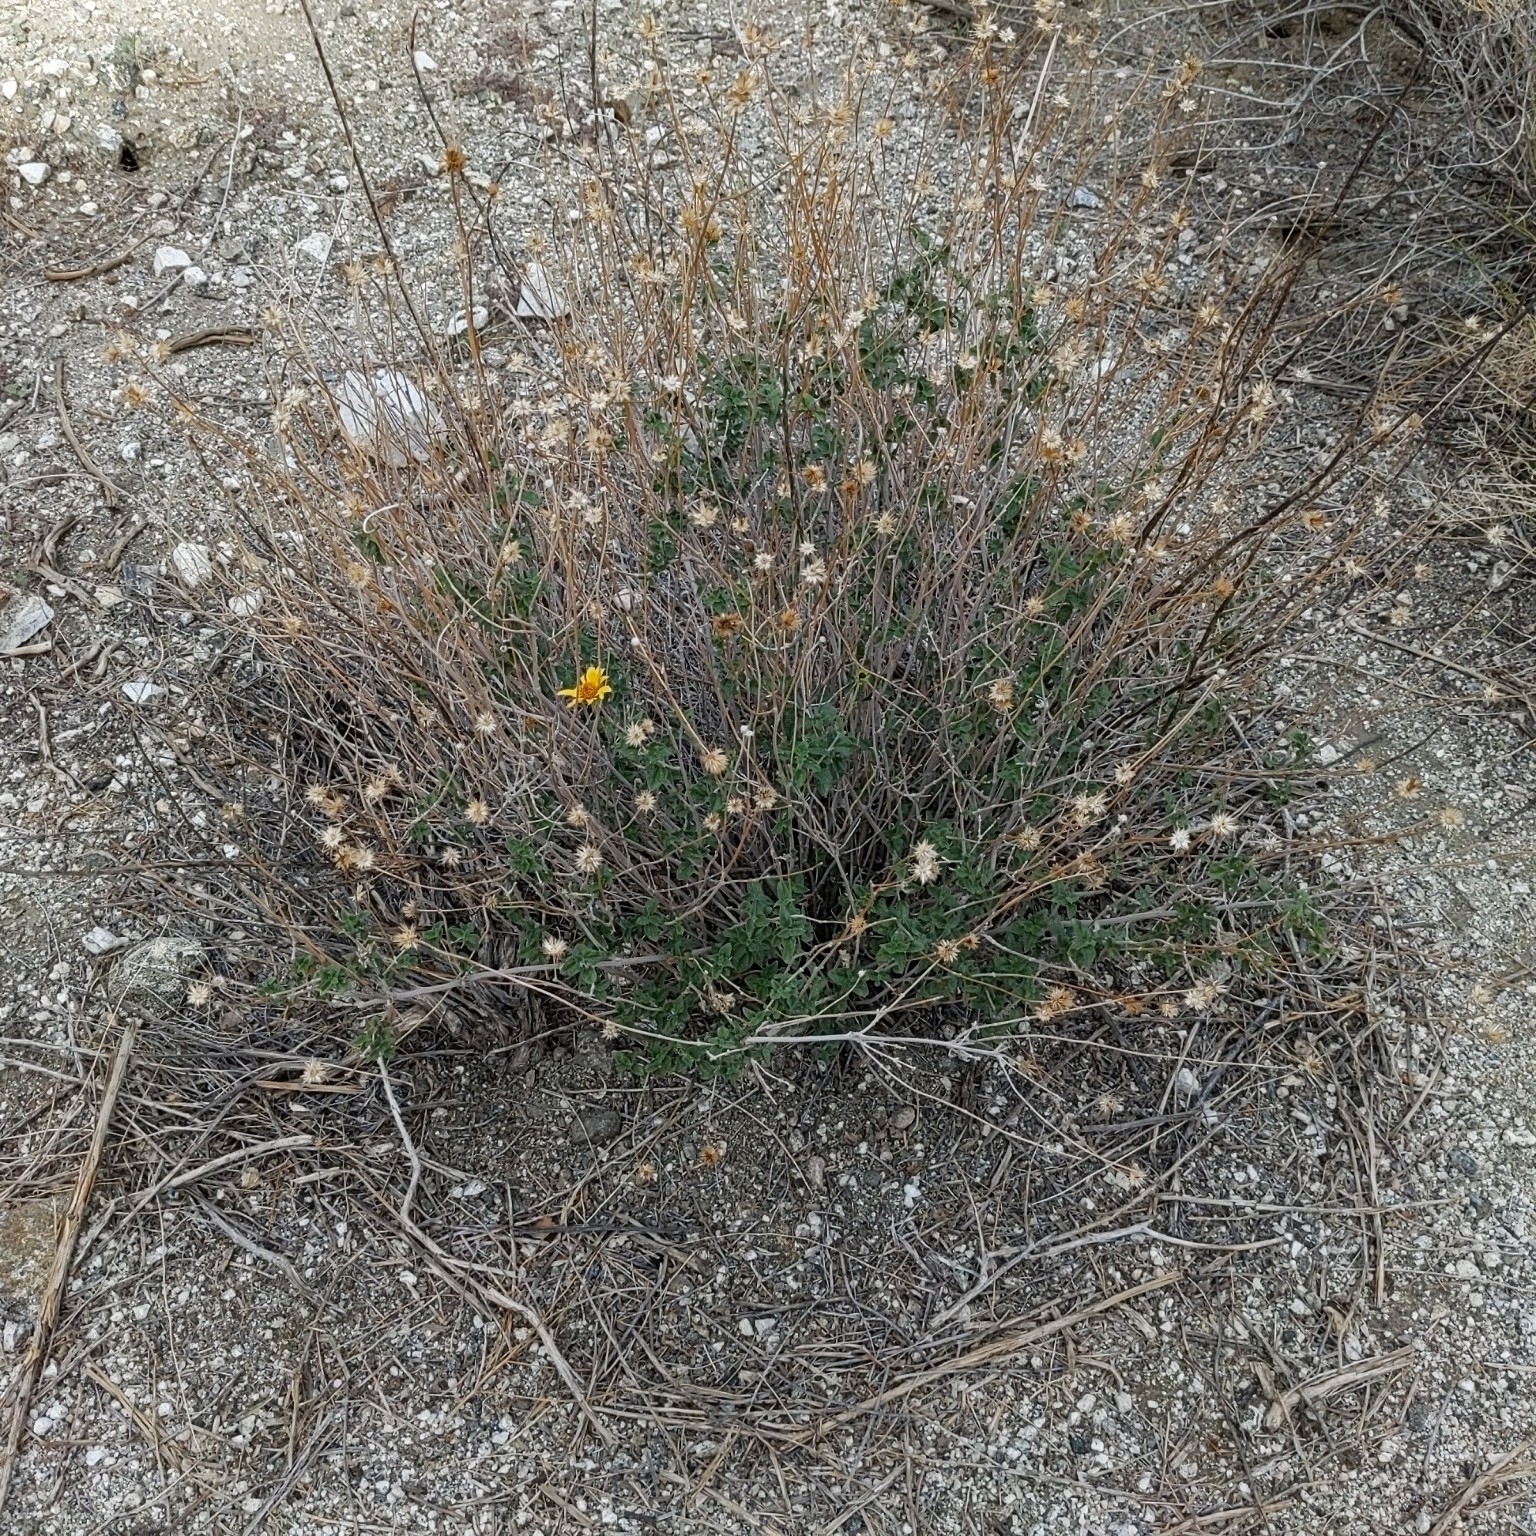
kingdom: Plantae
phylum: Tracheophyta
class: Magnoliopsida
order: Asterales
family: Asteraceae
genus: Bahiopsis
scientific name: Bahiopsis parishii
